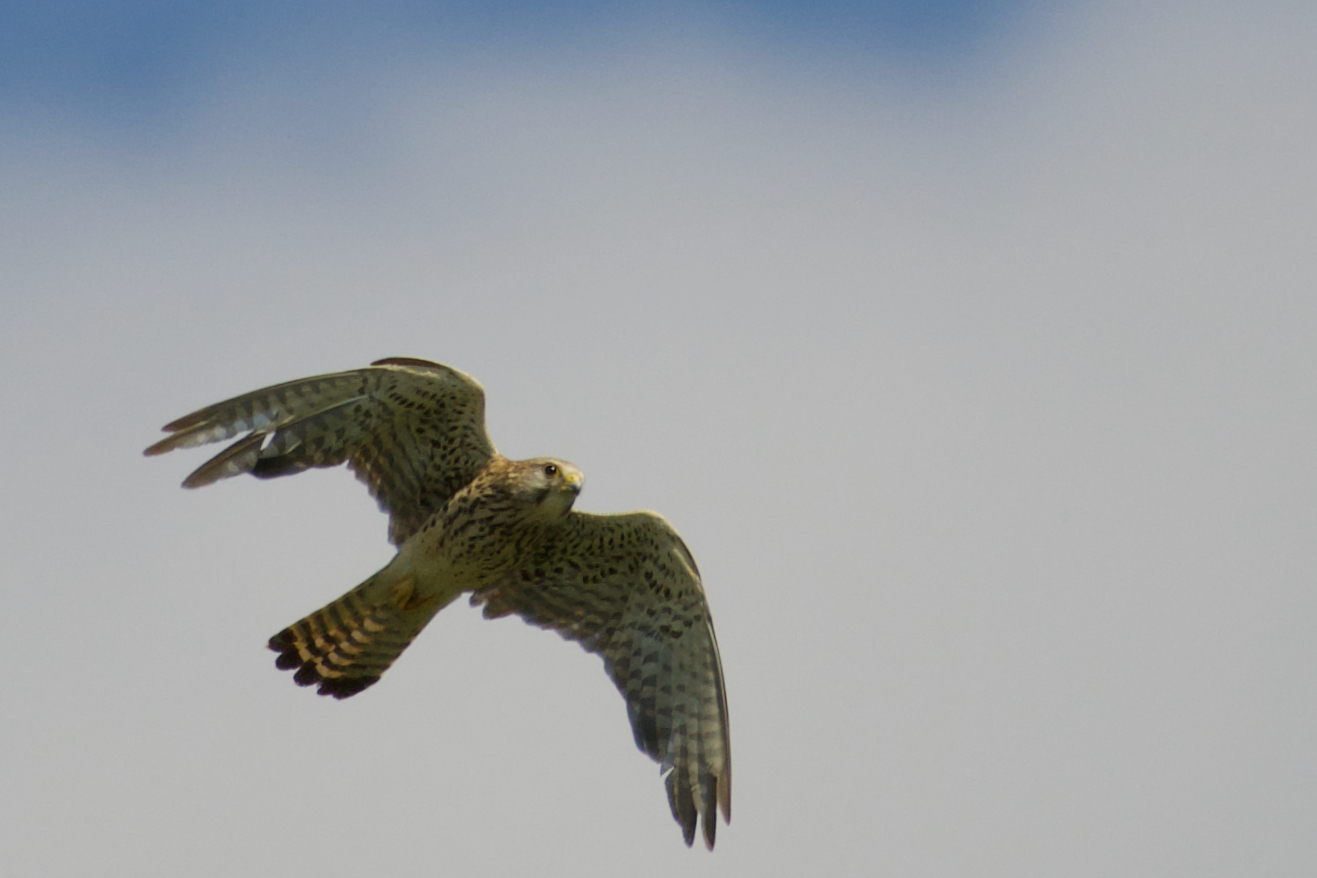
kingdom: Animalia
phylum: Chordata
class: Aves
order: Falconiformes
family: Falconidae
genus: Falco
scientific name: Falco tinnunculus
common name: Common kestrel
